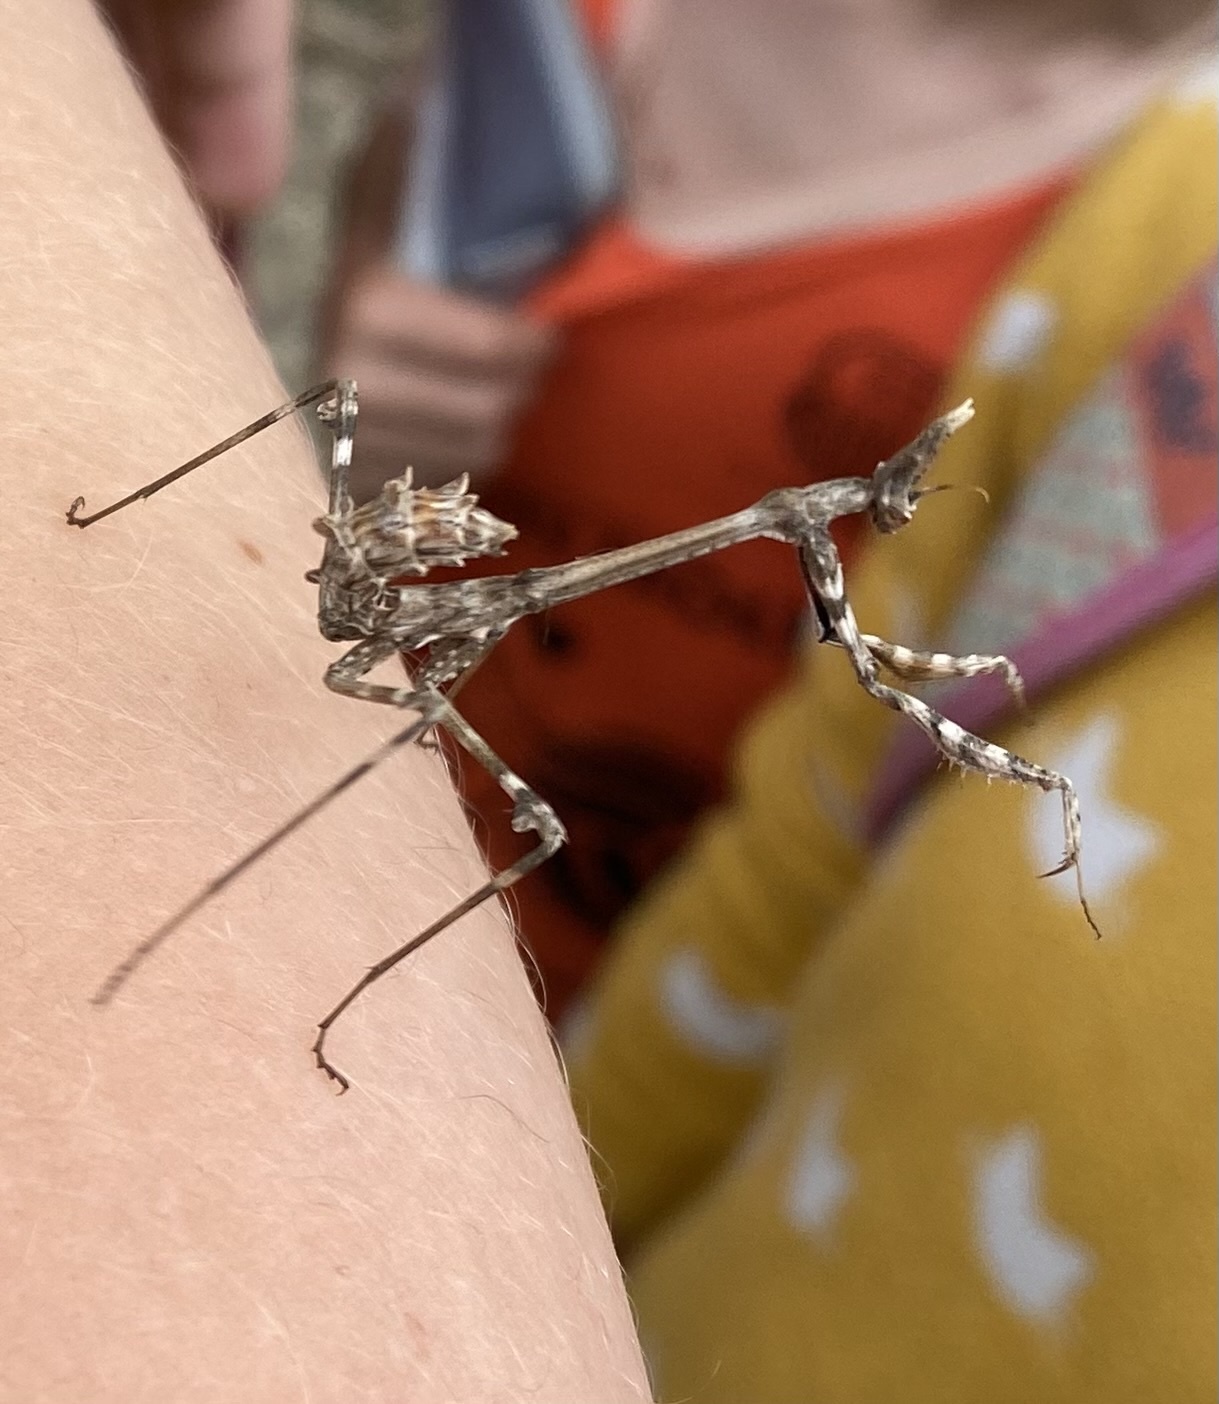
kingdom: Animalia
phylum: Arthropoda
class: Insecta
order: Mantodea
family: Empusidae
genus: Empusa
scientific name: Empusa pennata
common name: Conehead mantis
